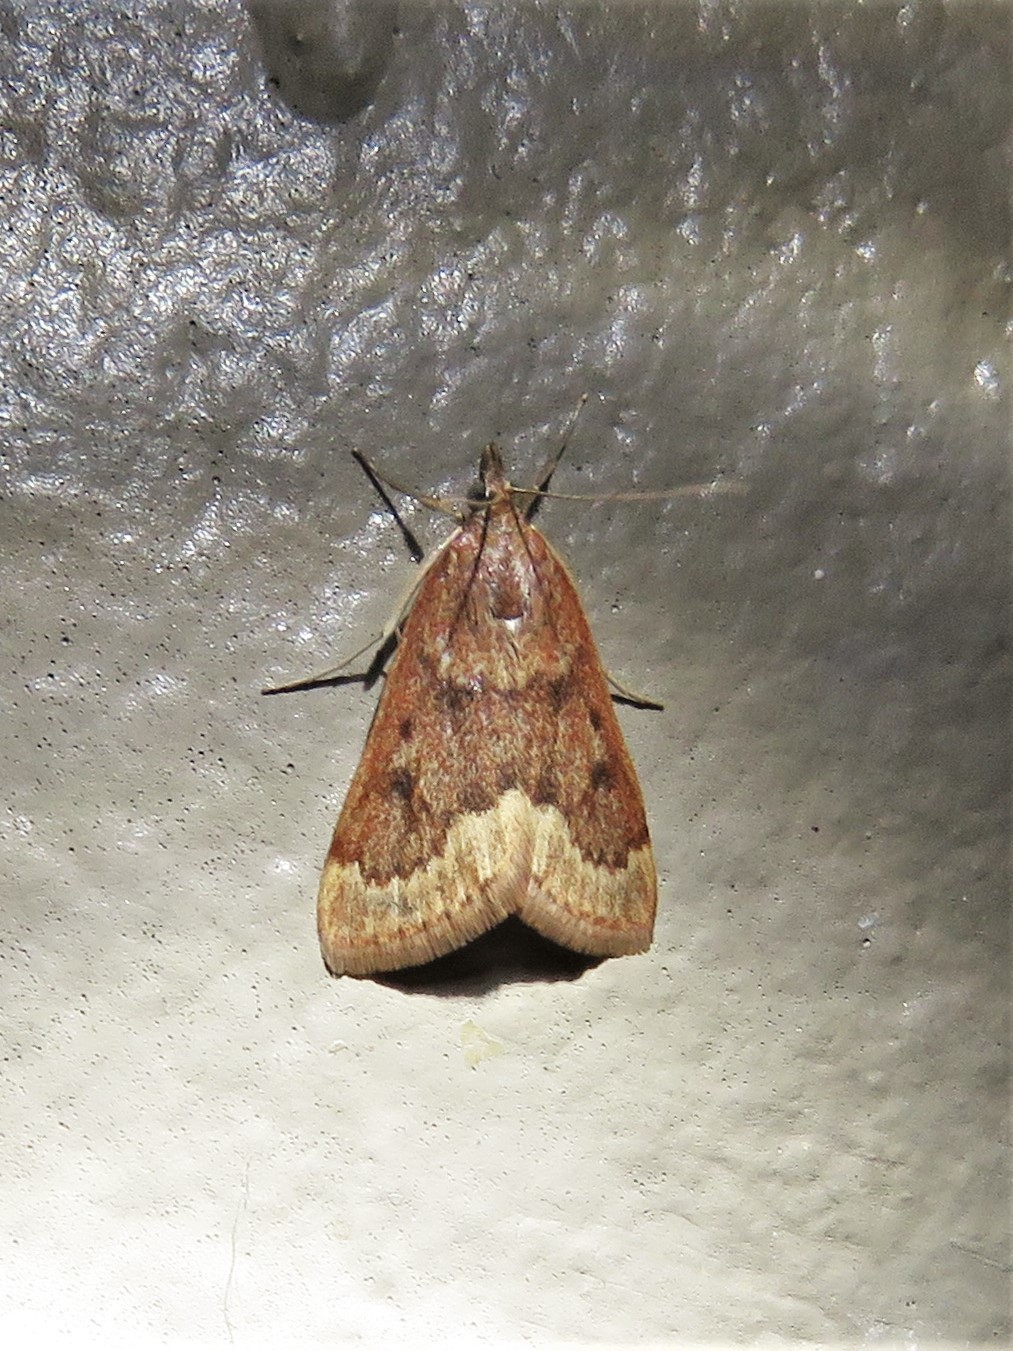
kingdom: Animalia
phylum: Arthropoda
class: Insecta
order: Lepidoptera
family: Crambidae
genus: Achyra
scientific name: Achyra rantalis
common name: Garden webworm
